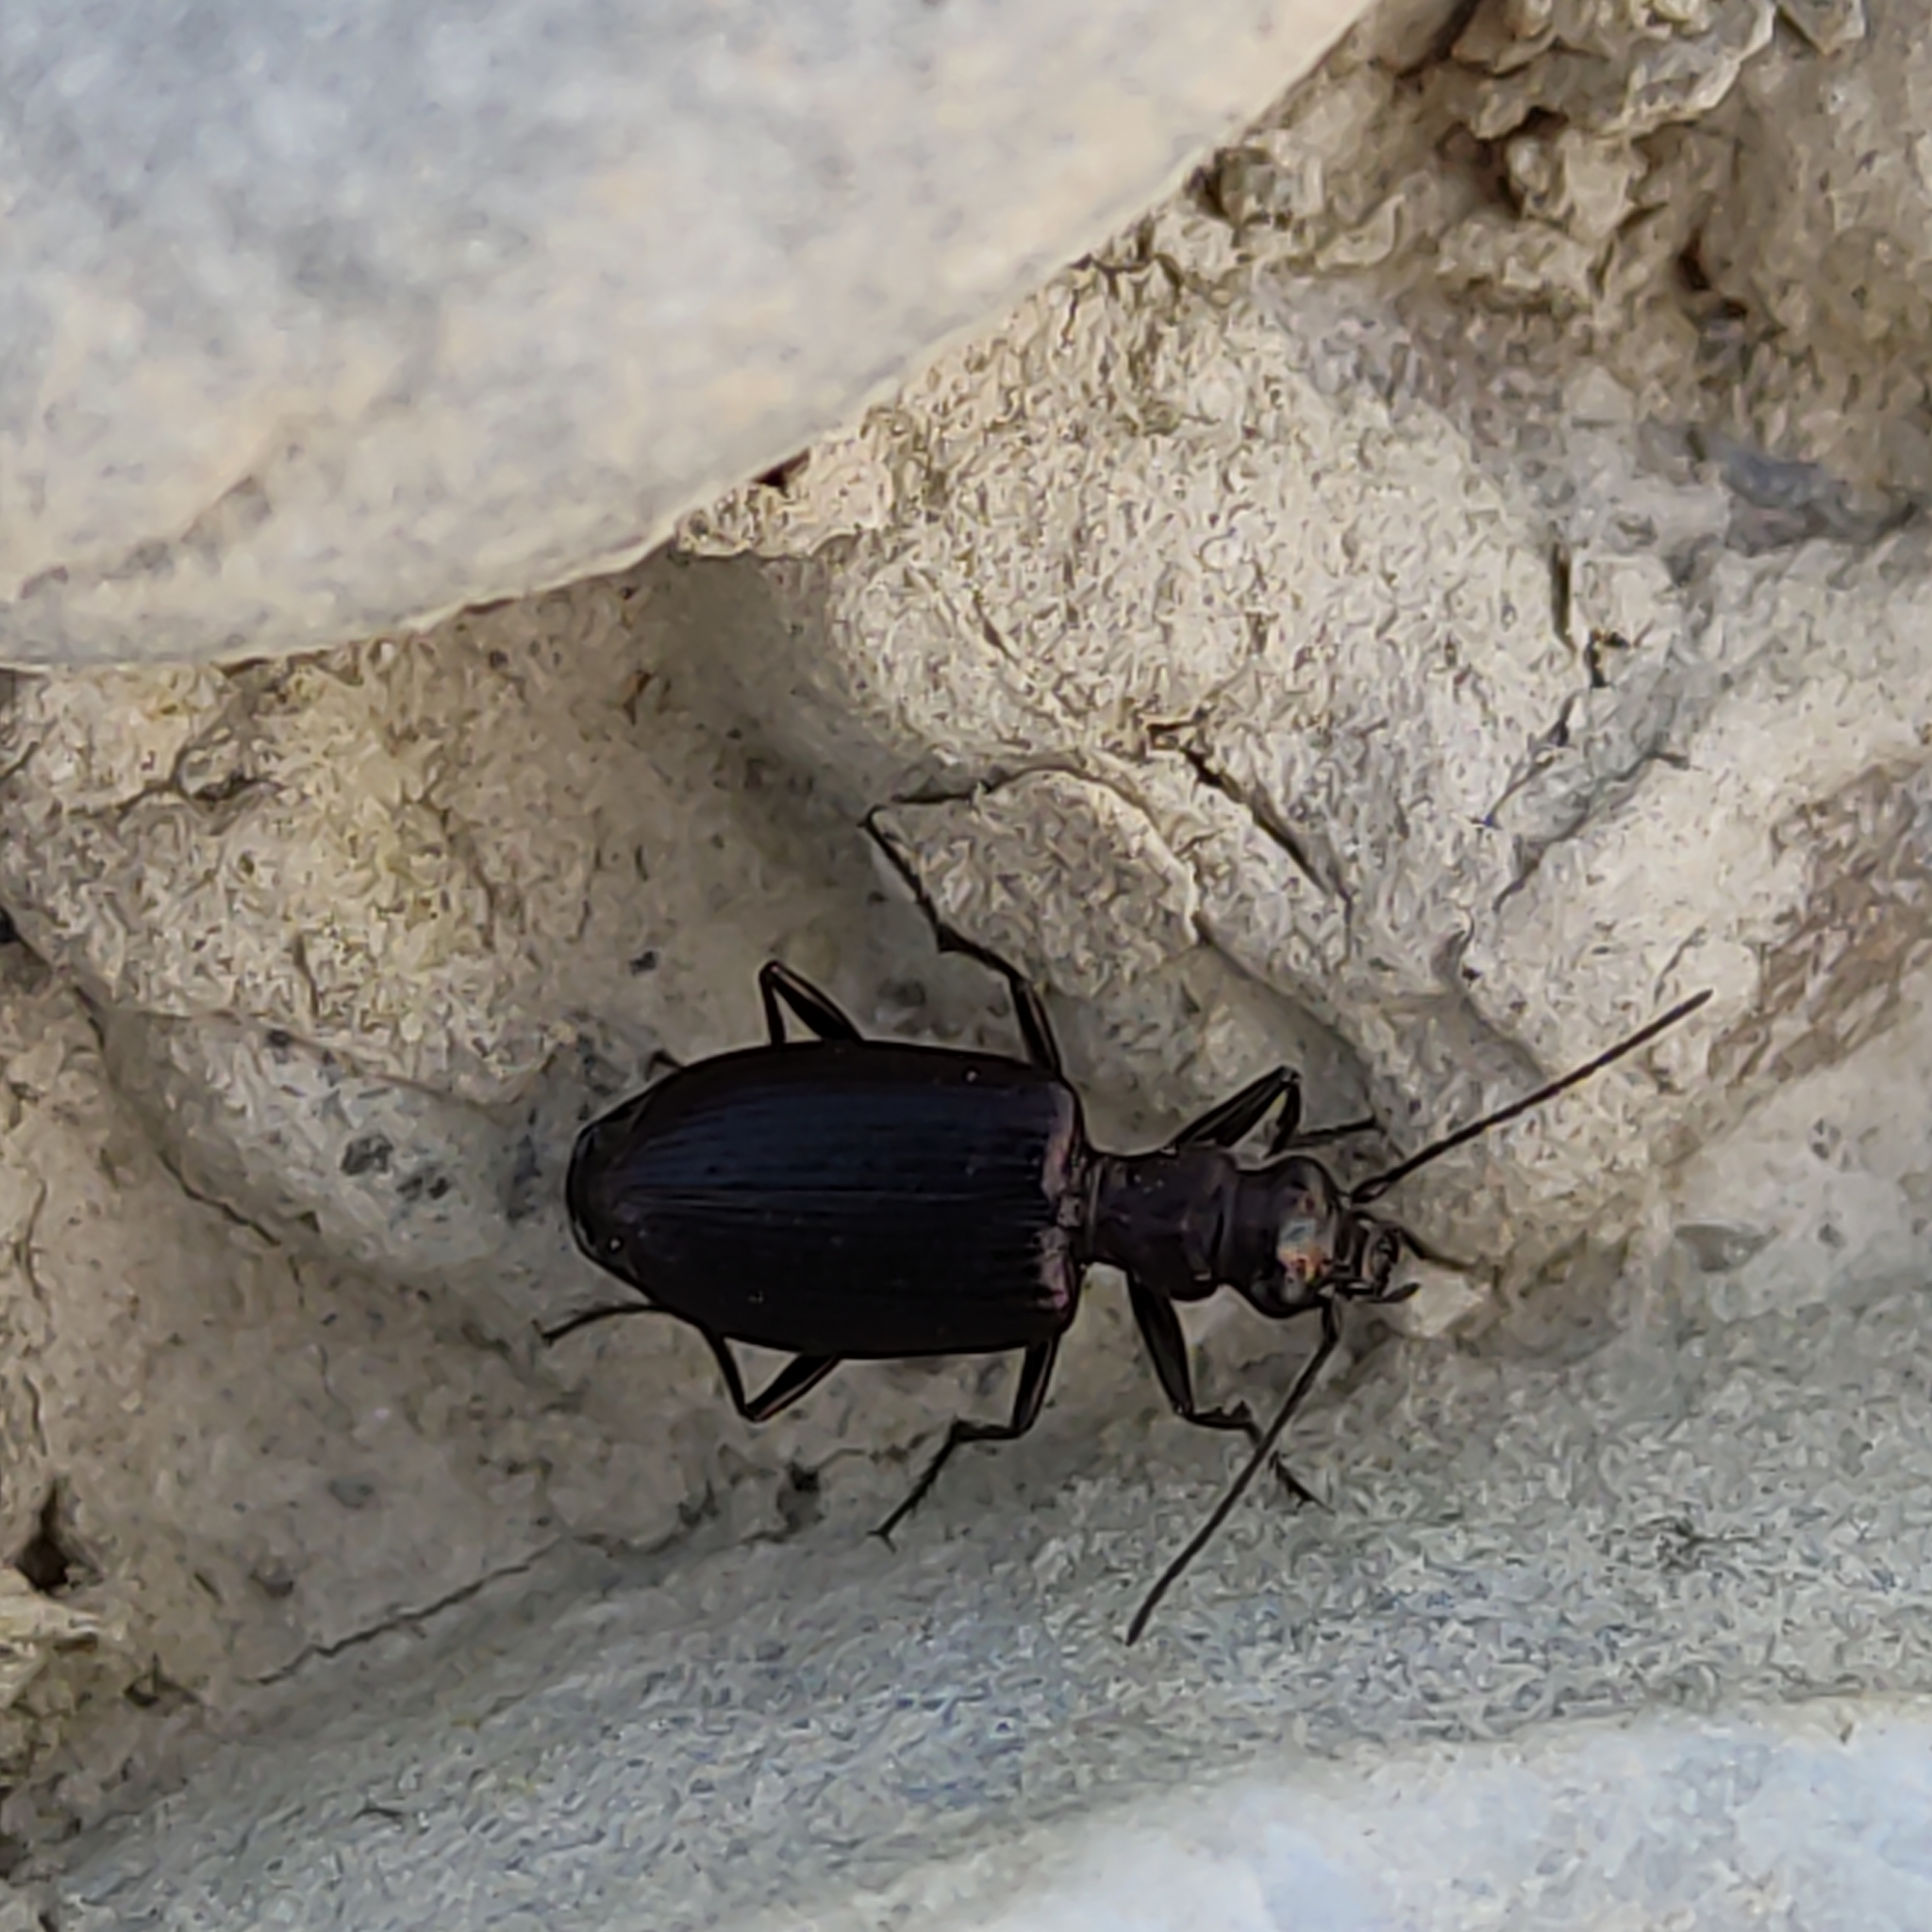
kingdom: Animalia
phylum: Arthropoda
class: Insecta
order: Coleoptera
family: Carabidae
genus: Actenonyx
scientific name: Actenonyx bembidioides
